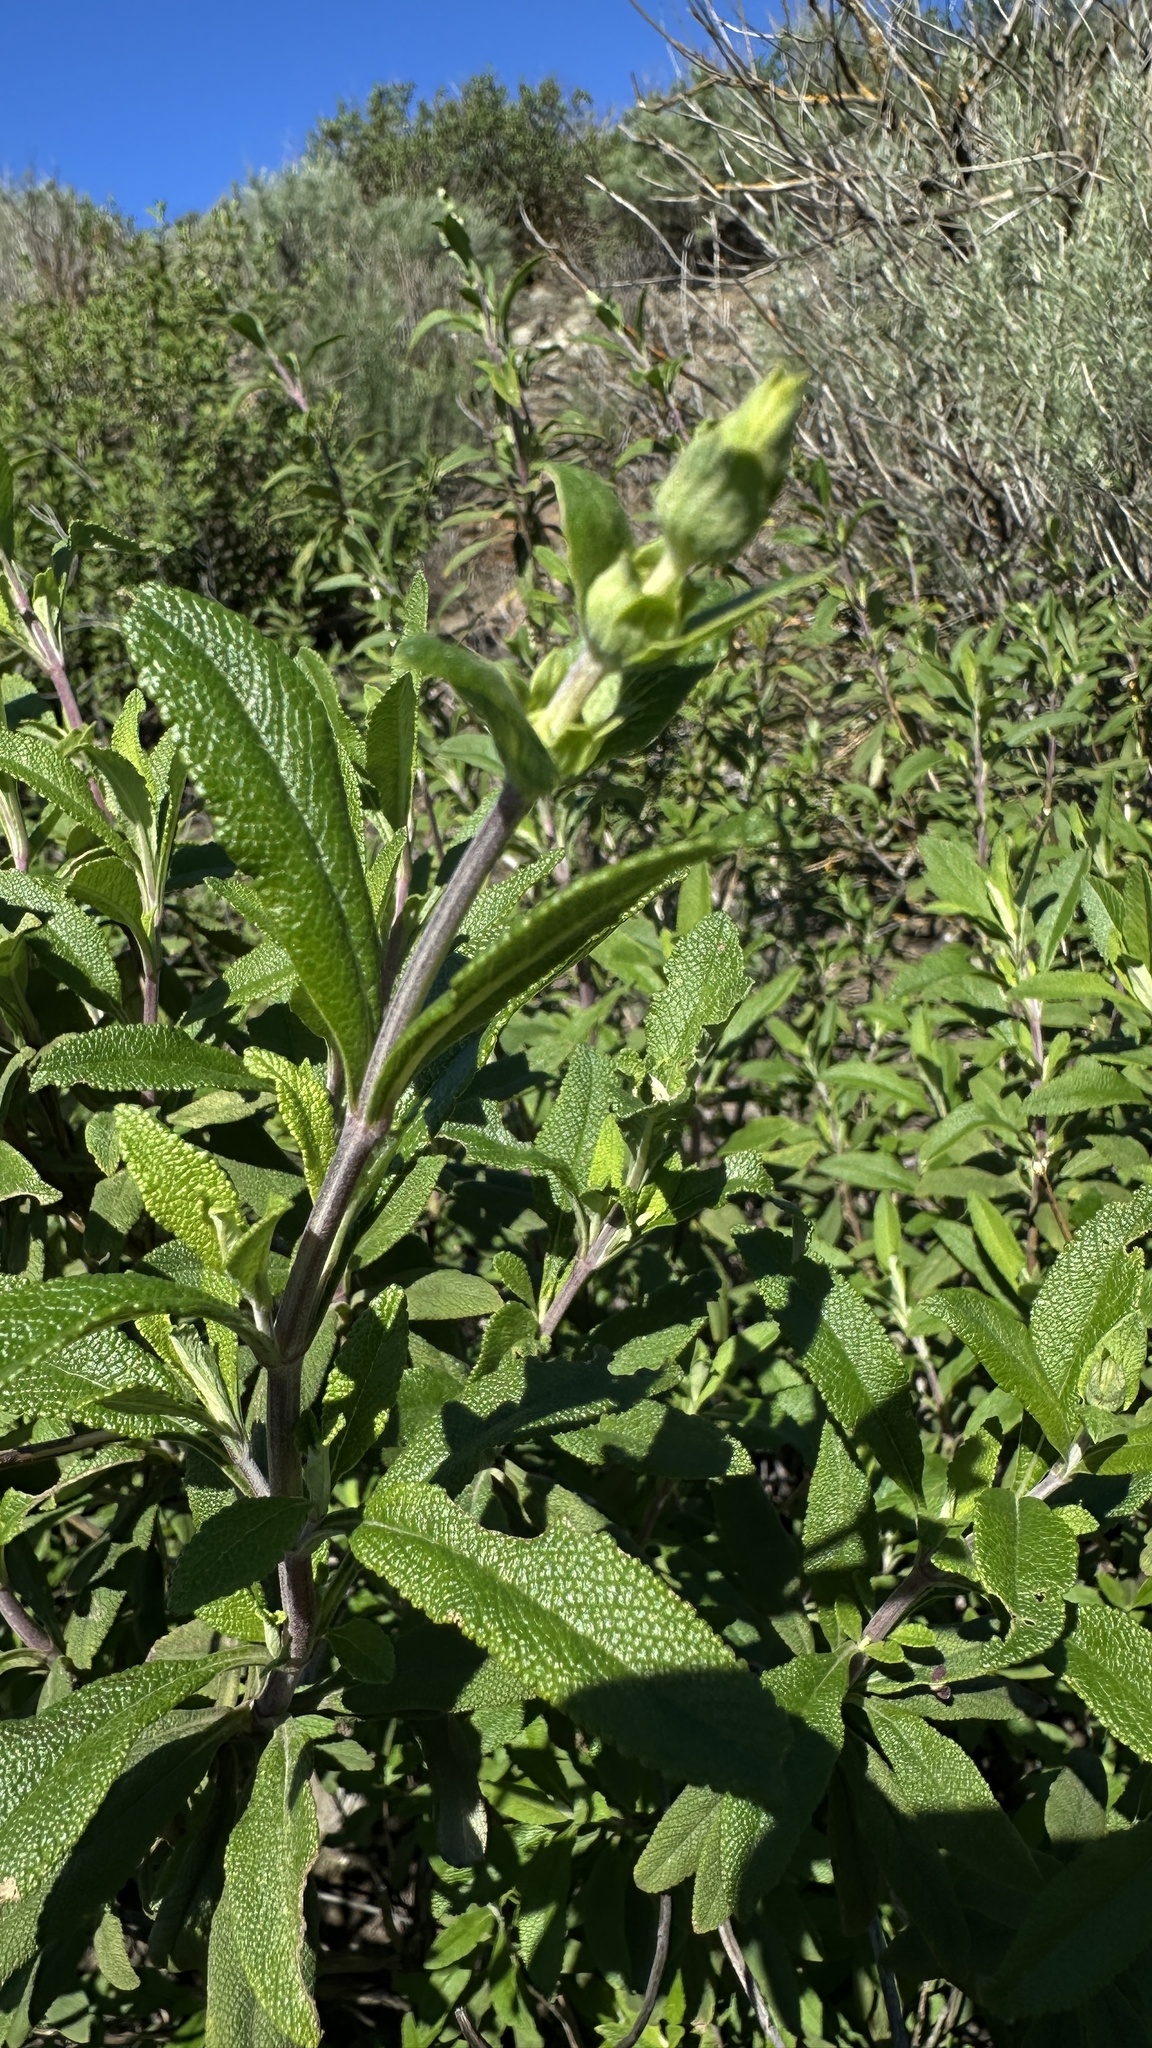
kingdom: Plantae
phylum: Tracheophyta
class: Magnoliopsida
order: Lamiales
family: Lamiaceae
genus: Salvia
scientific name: Salvia mellifera
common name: Black sage
